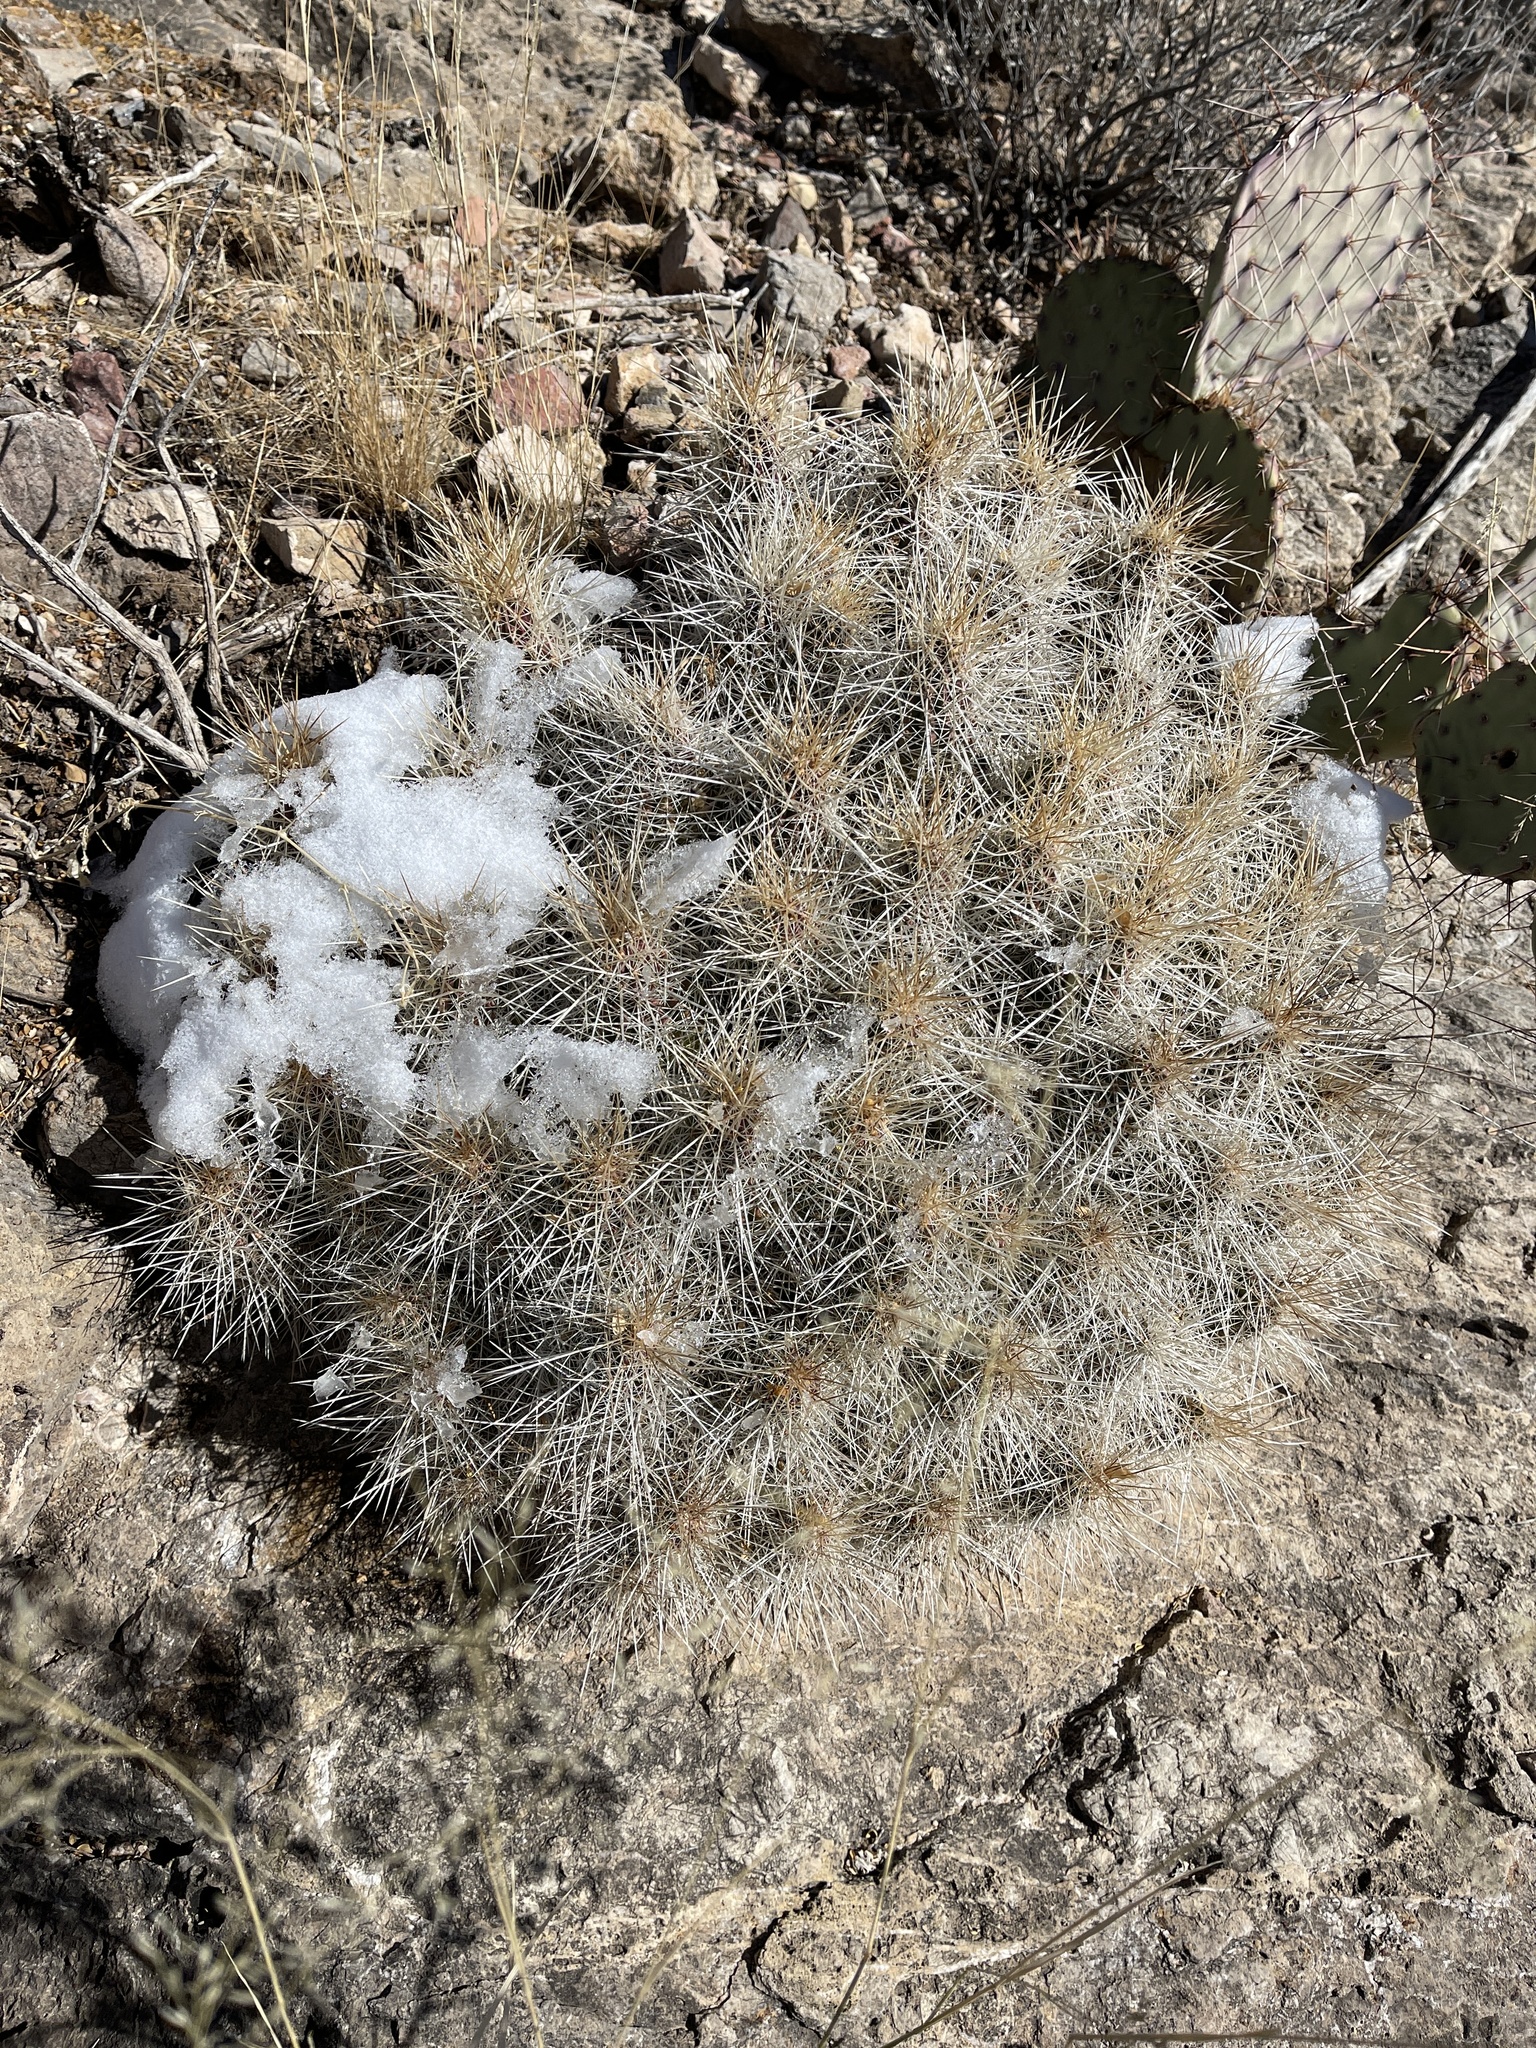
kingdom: Plantae
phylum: Tracheophyta
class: Magnoliopsida
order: Caryophyllales
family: Cactaceae
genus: Echinocereus
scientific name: Echinocereus stramineus
